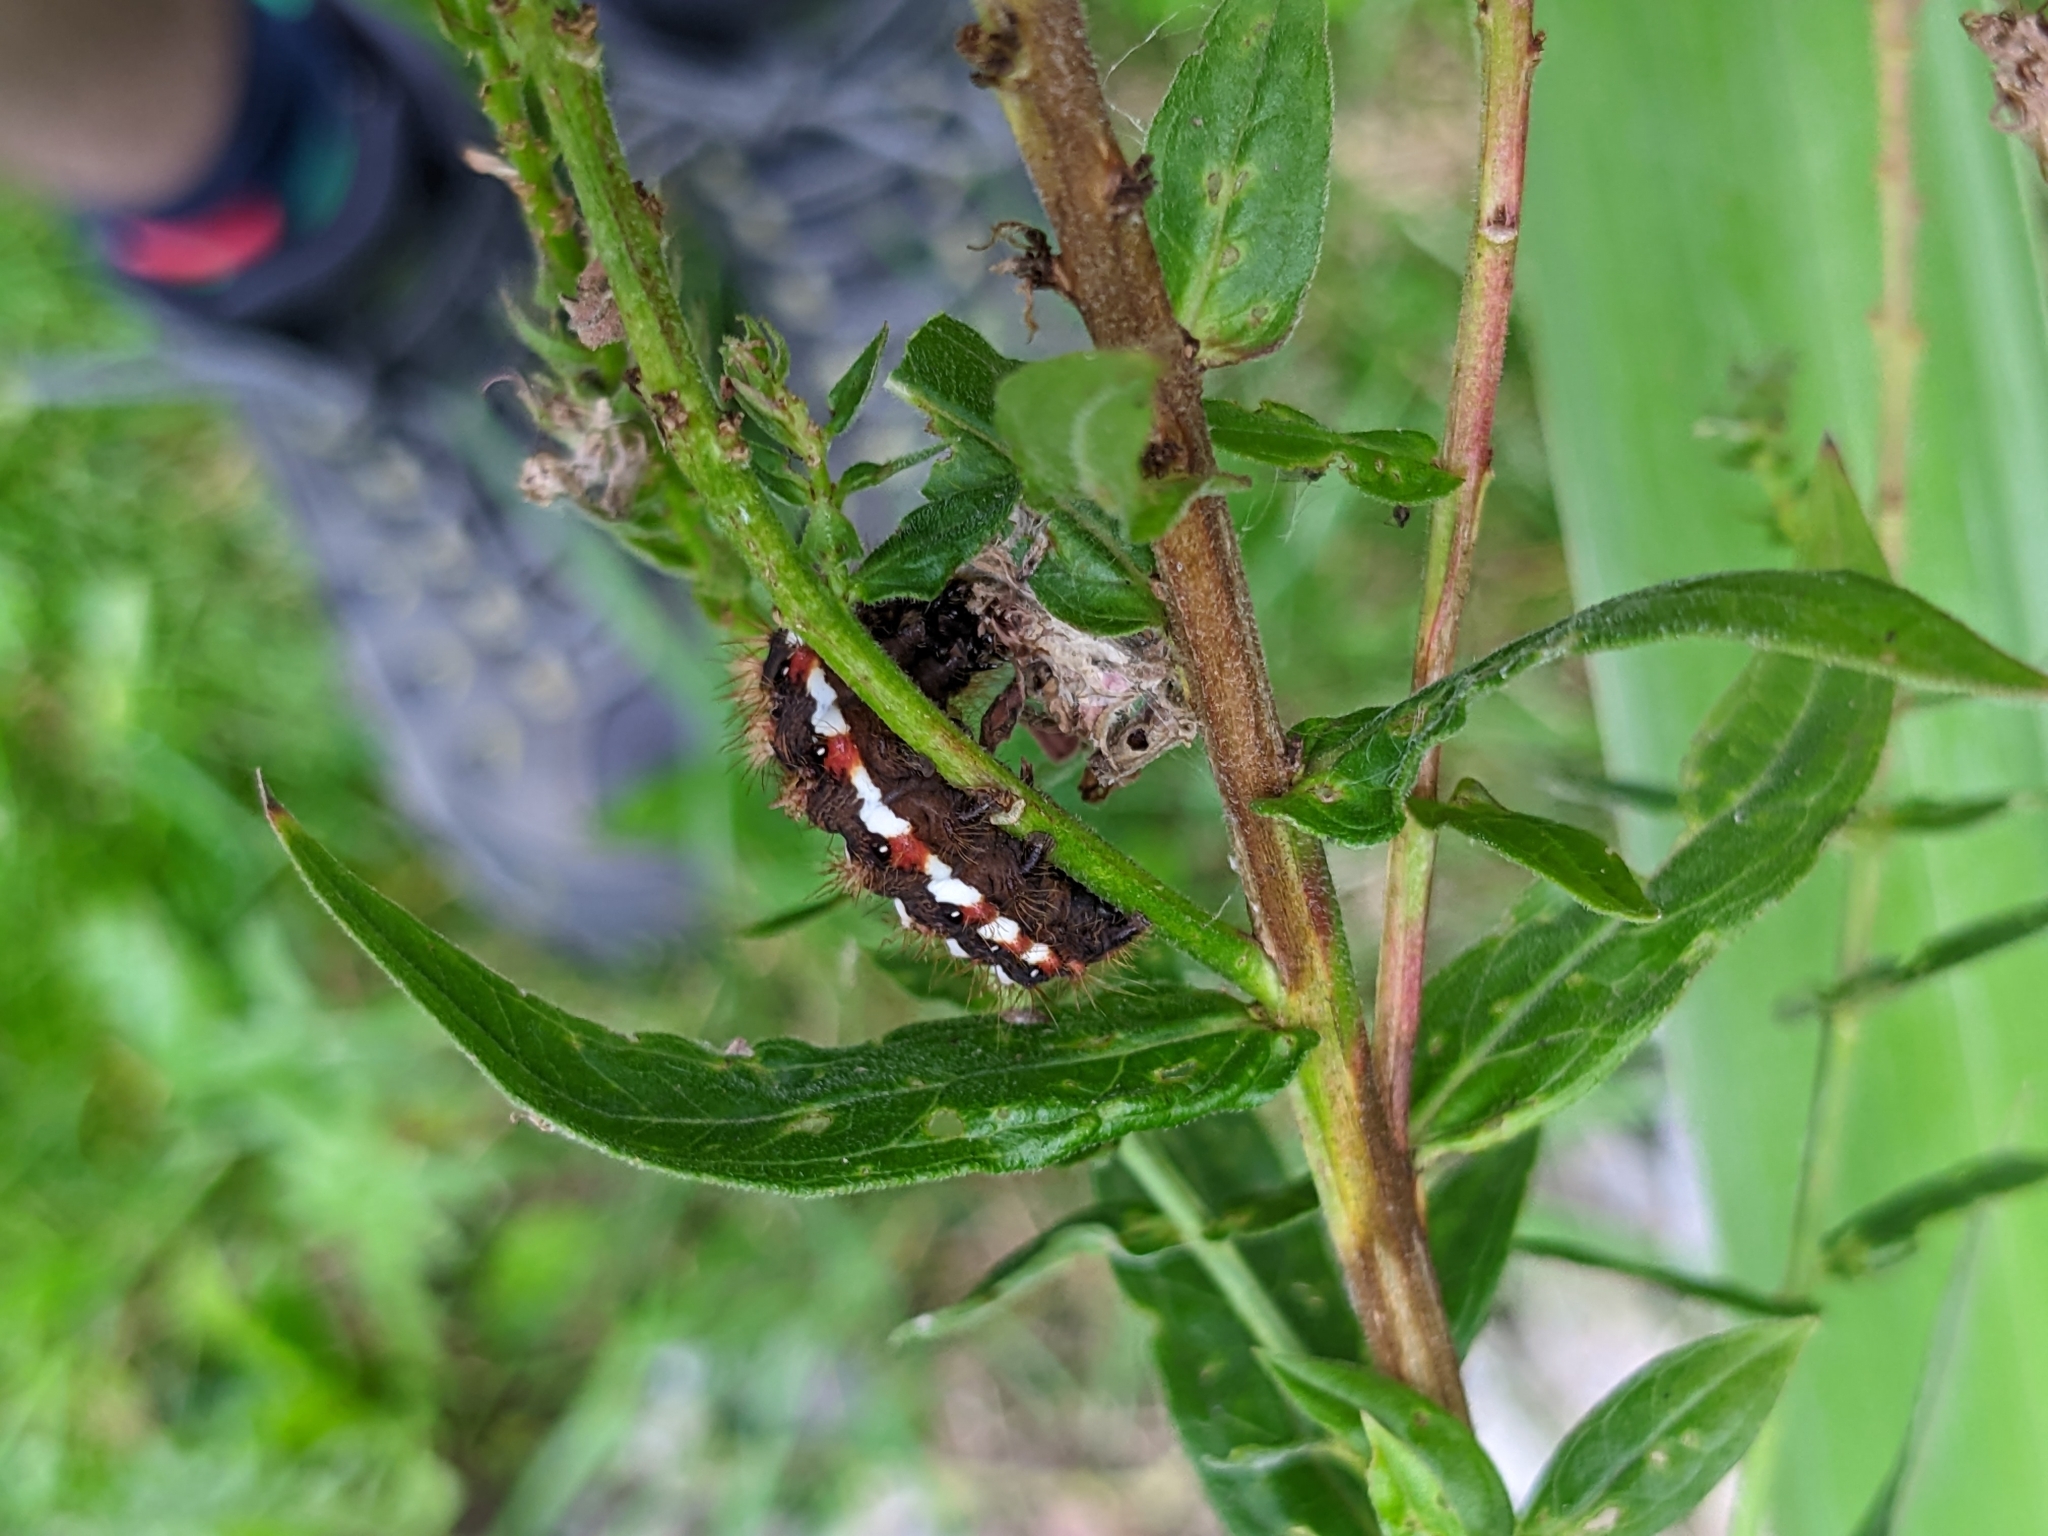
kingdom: Animalia
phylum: Arthropoda
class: Insecta
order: Lepidoptera
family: Noctuidae
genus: Acronicta
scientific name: Acronicta rumicis
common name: Knot grass
